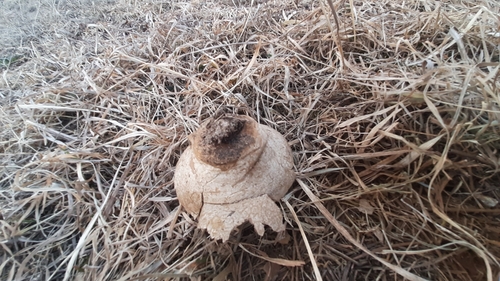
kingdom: Fungi
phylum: Basidiomycota
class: Agaricomycetes
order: Agaricales
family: Lycoperdaceae
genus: Bovistella
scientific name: Bovistella utriformis
